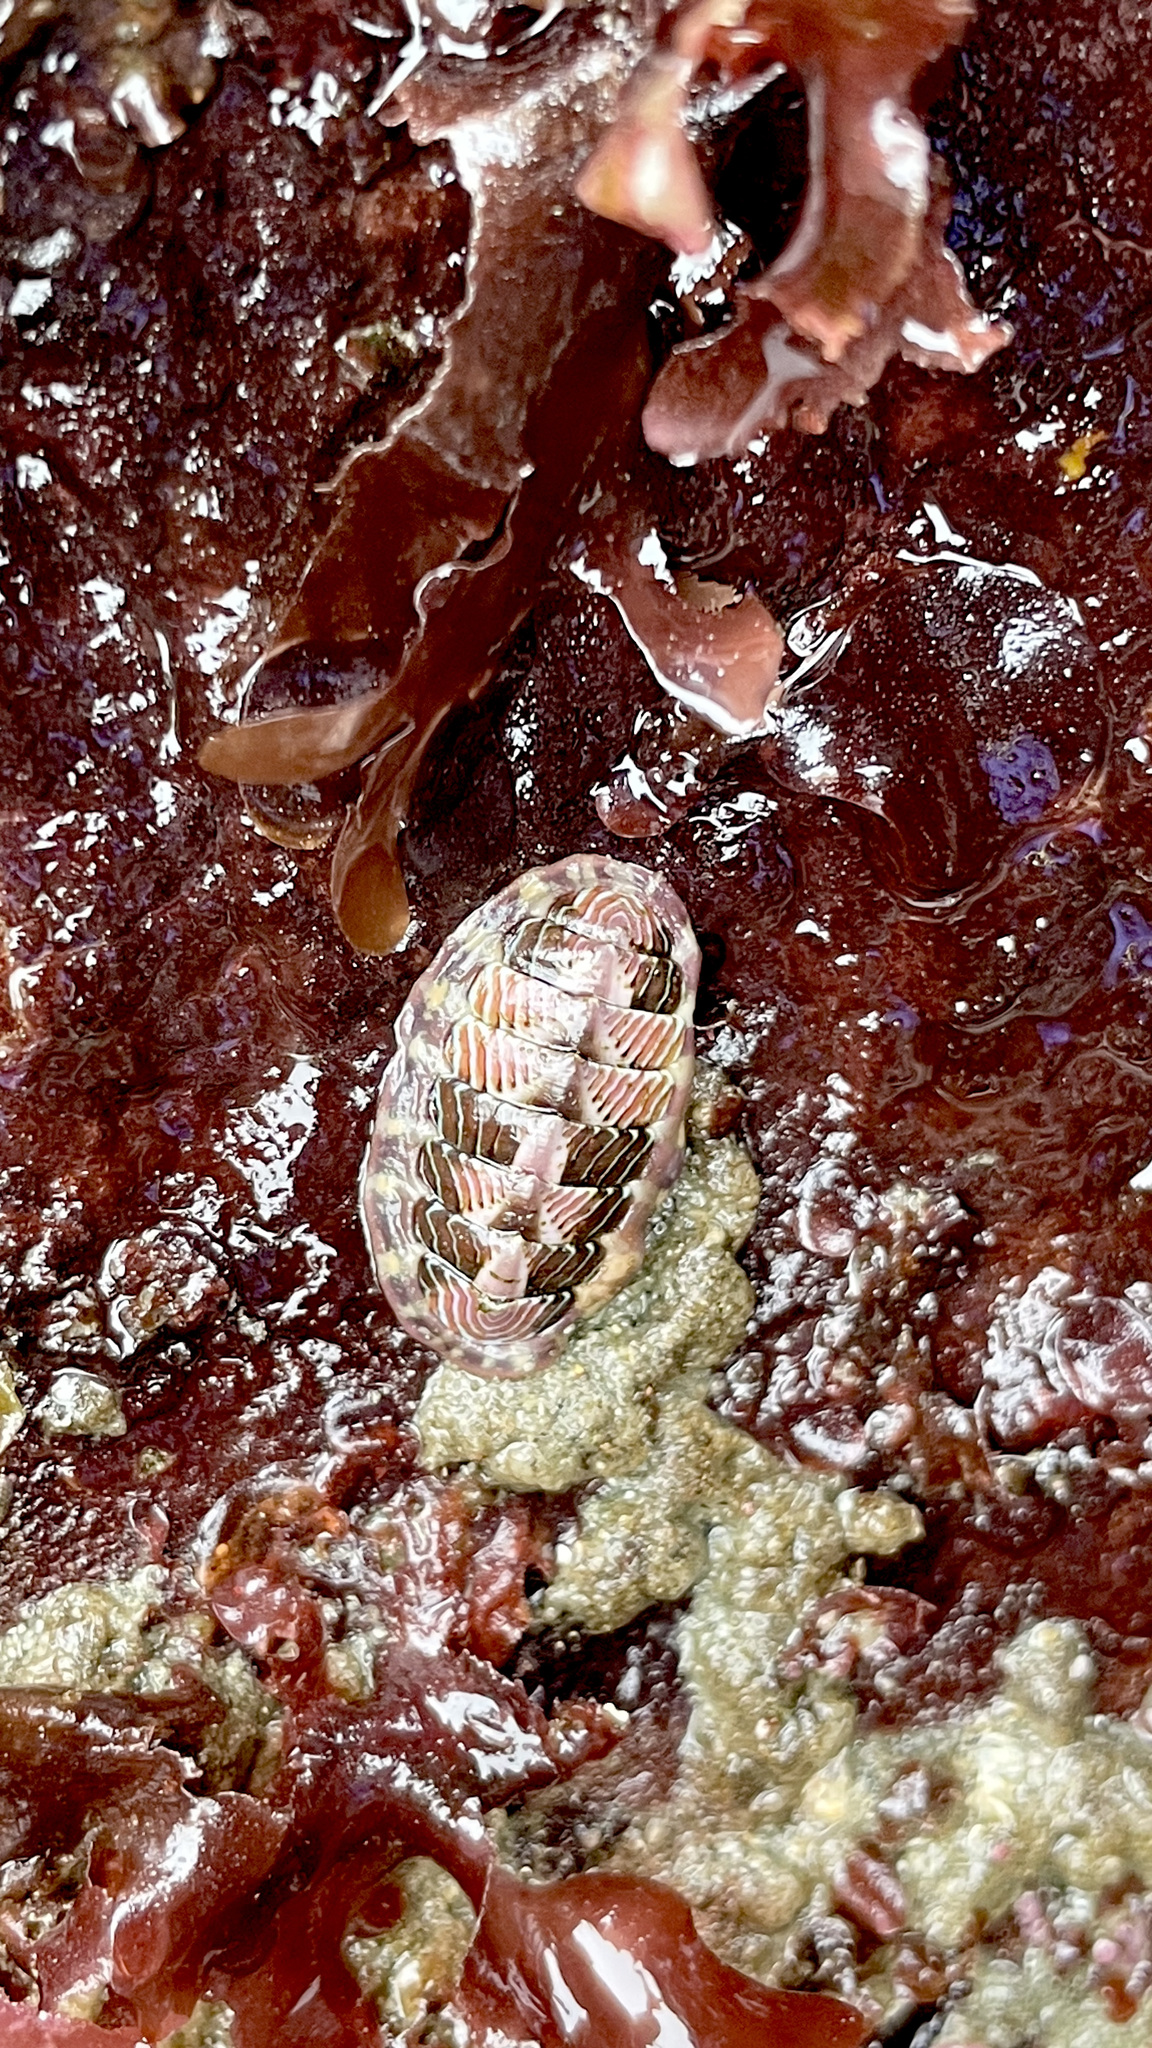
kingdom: Animalia
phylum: Mollusca
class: Polyplacophora
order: Chitonida
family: Tonicellidae
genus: Tonicella
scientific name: Tonicella lineata
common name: Lined chiton
